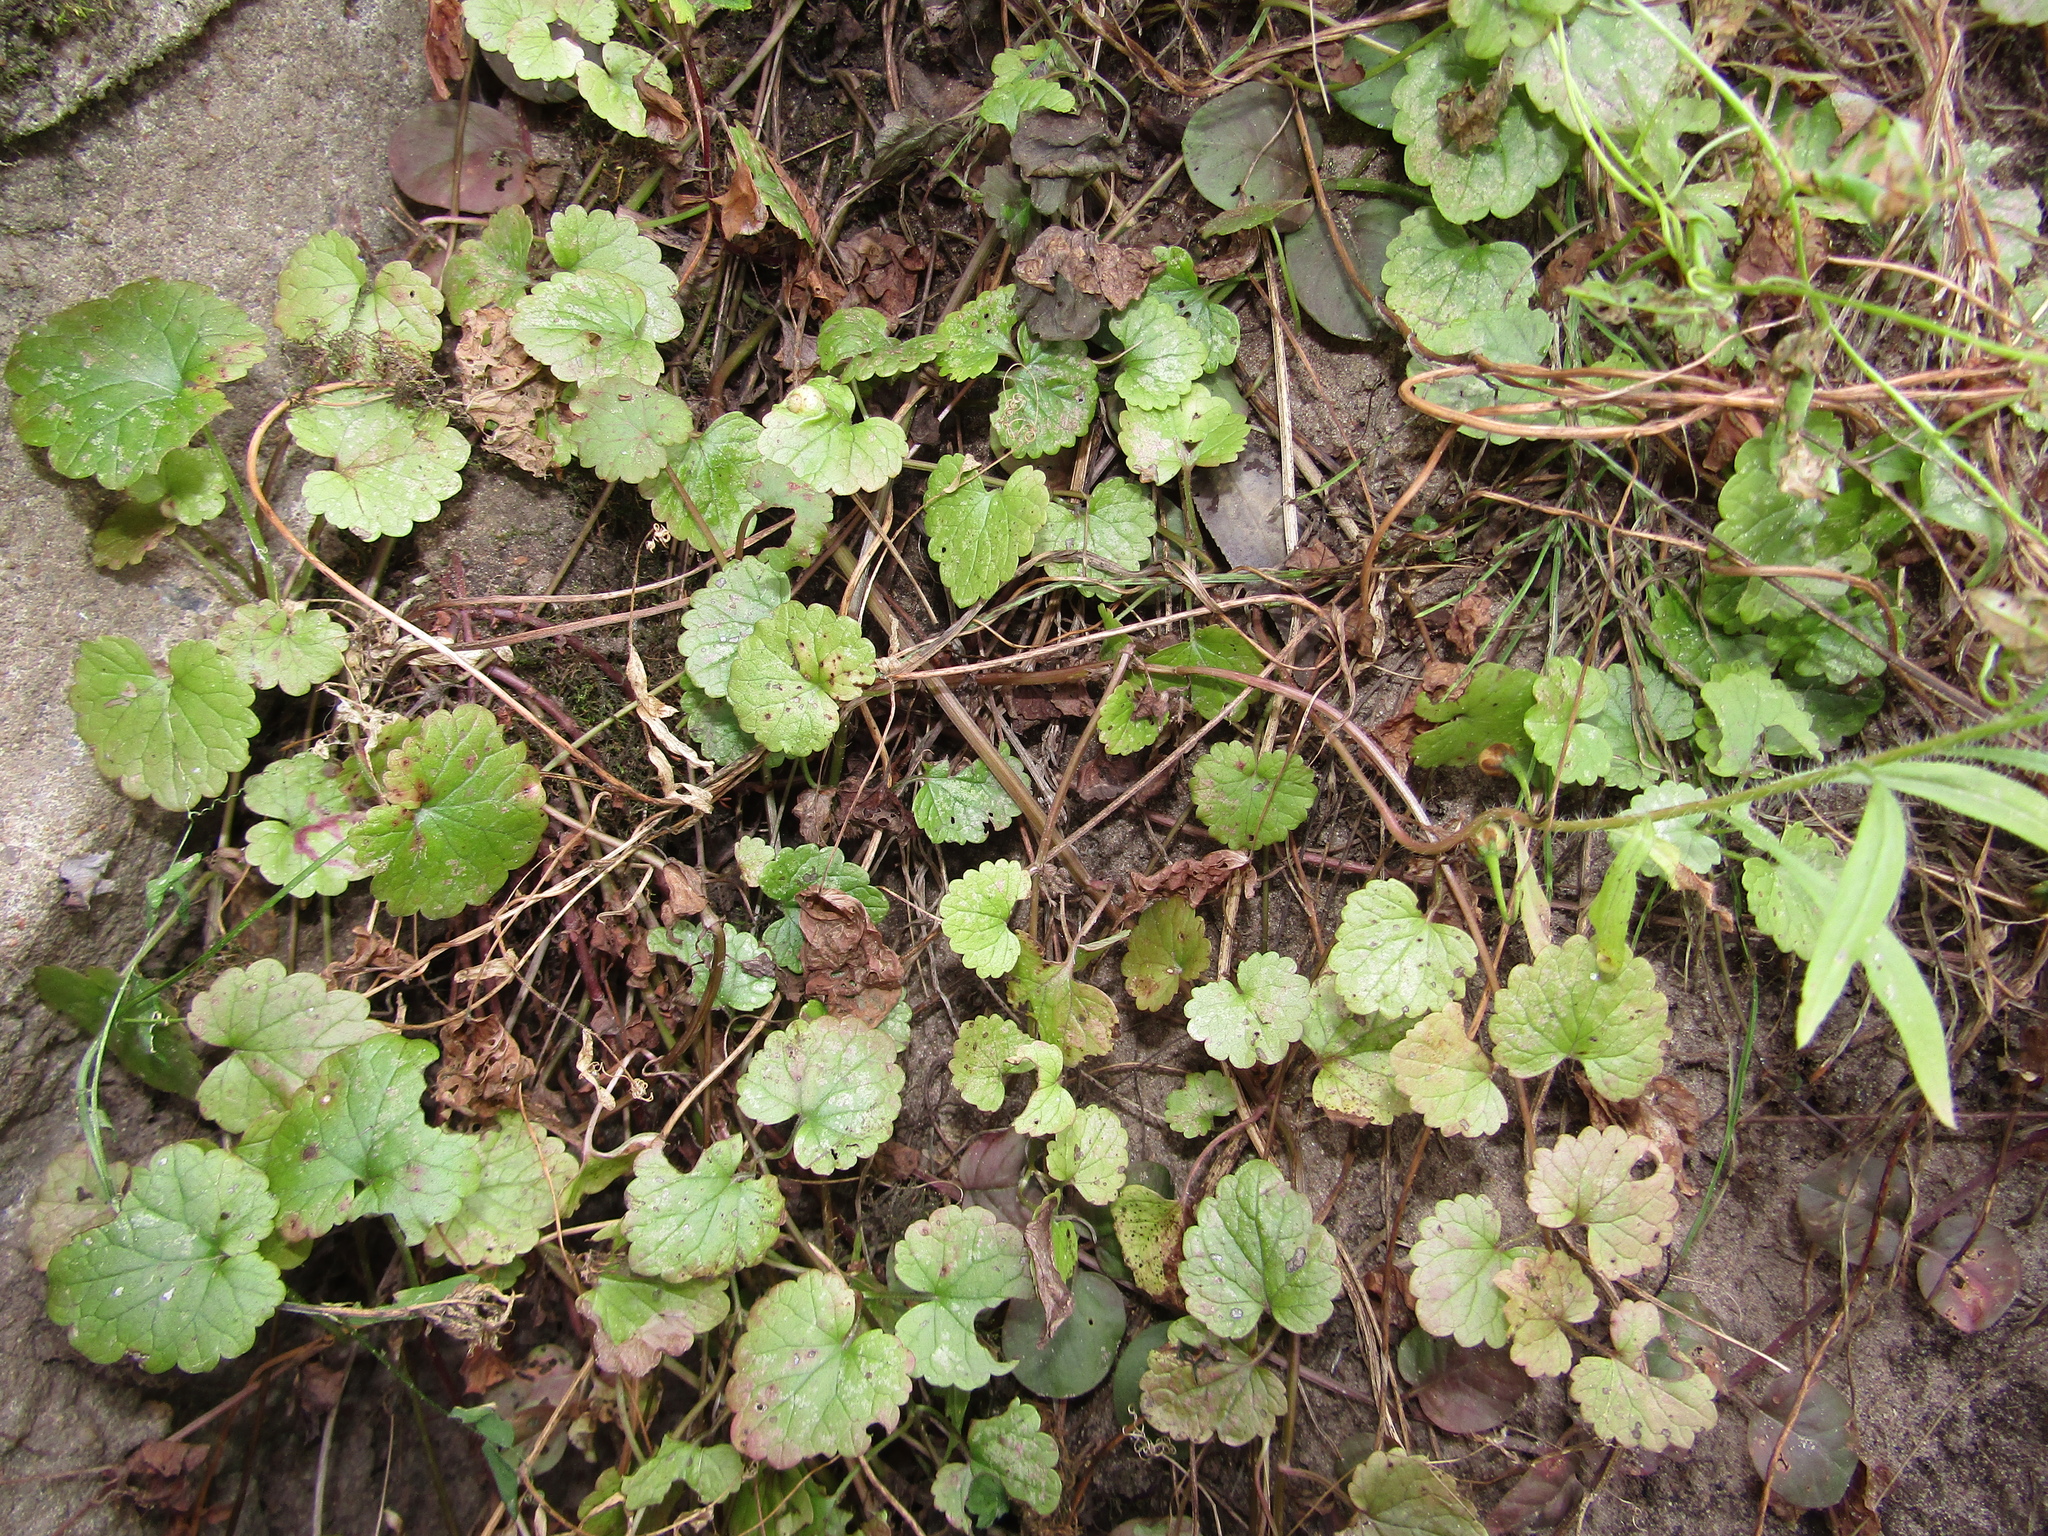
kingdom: Plantae
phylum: Tracheophyta
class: Magnoliopsida
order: Lamiales
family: Lamiaceae
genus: Glechoma
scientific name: Glechoma hederacea
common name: Ground ivy
